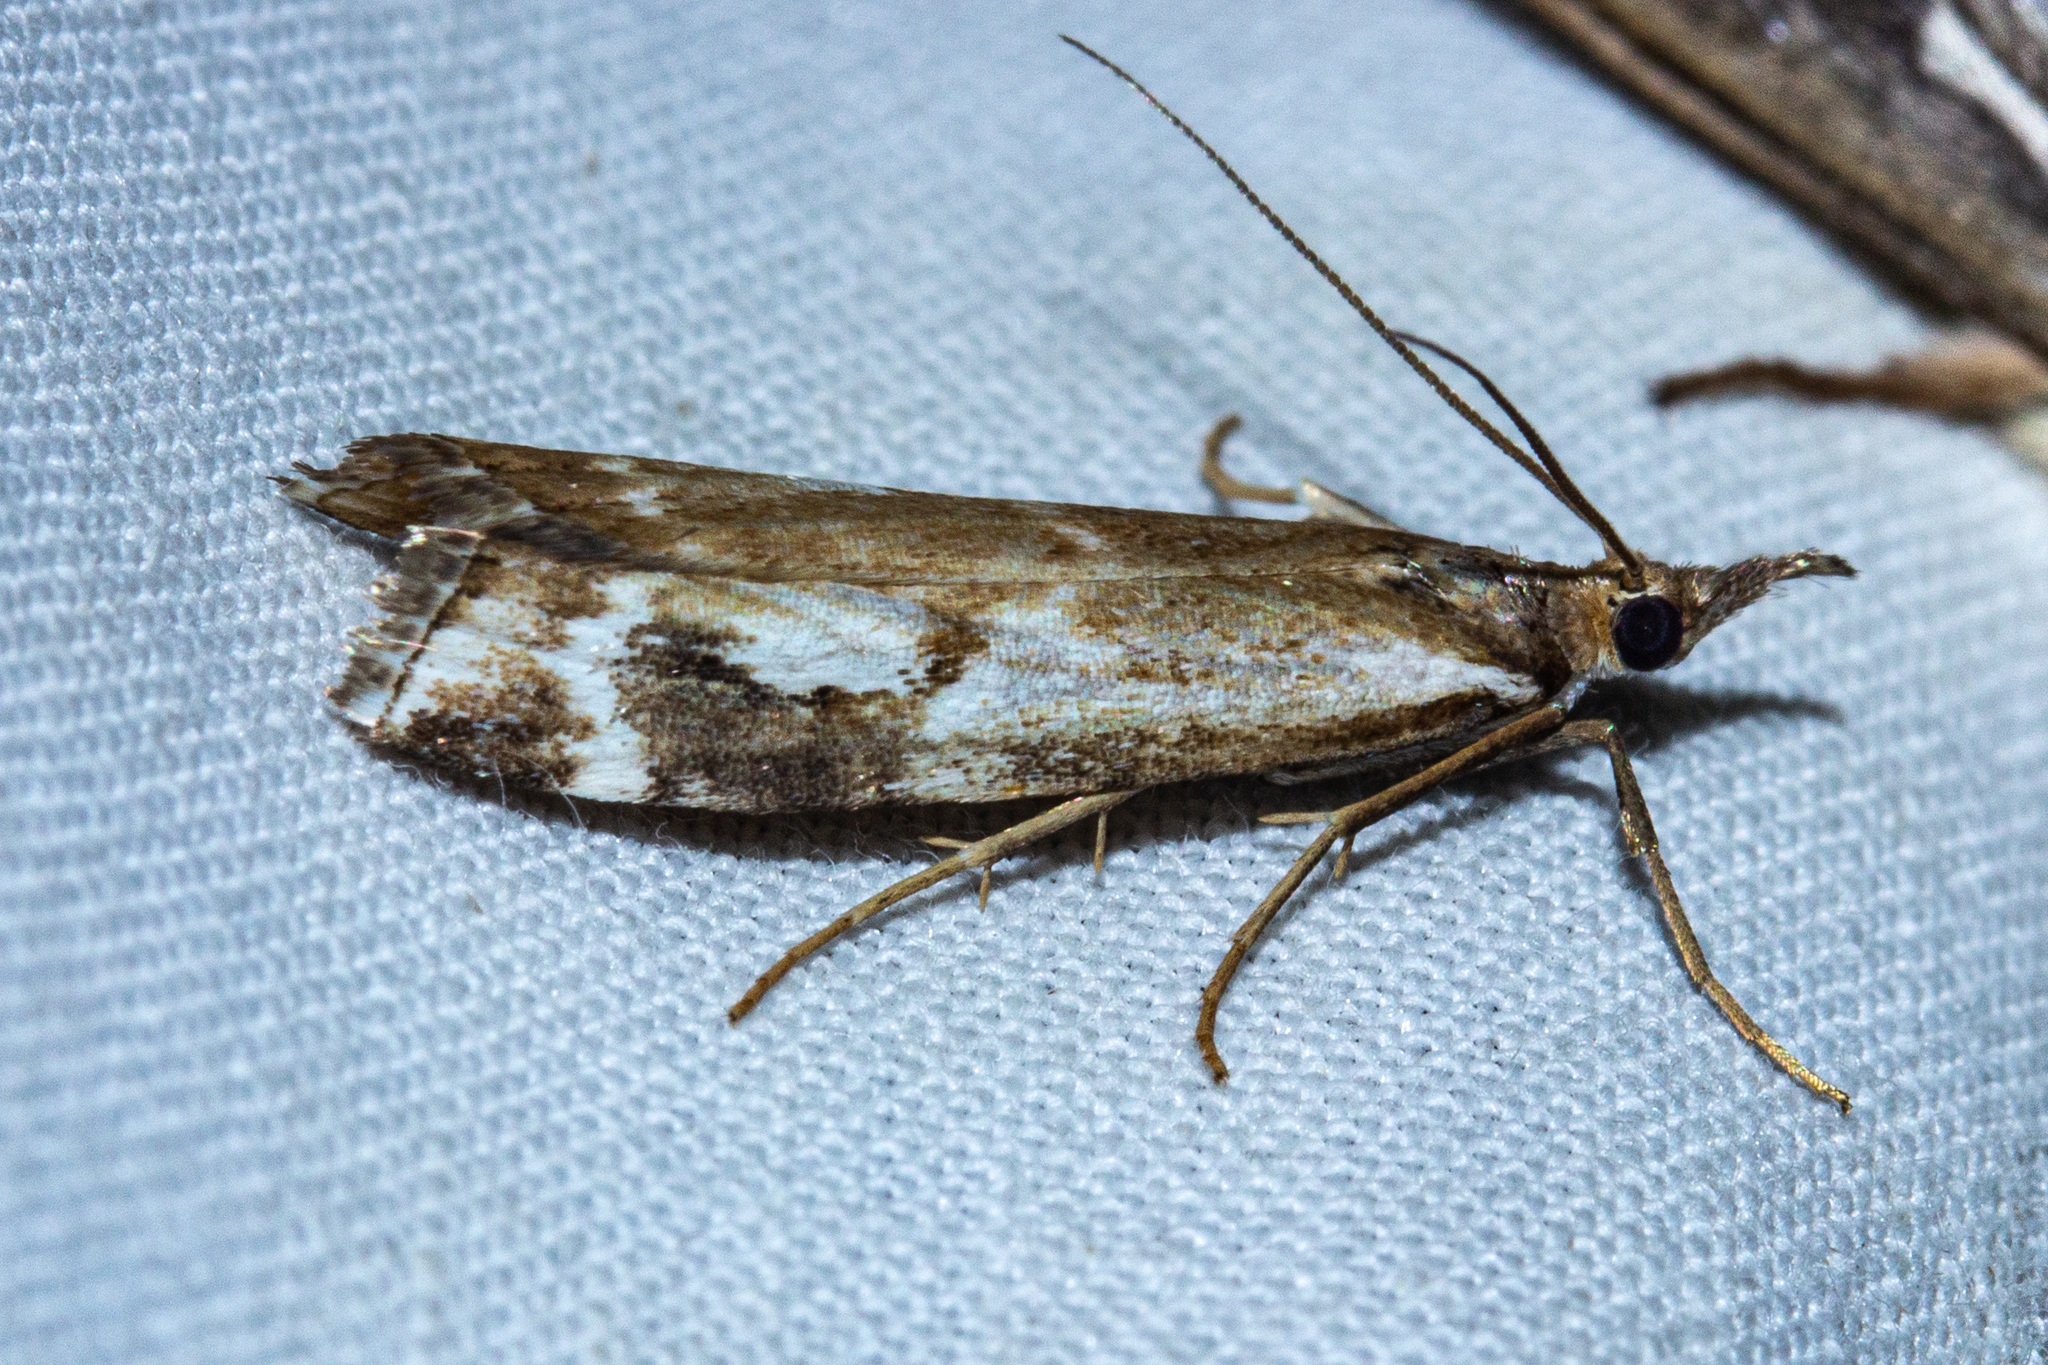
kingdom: Animalia
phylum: Arthropoda
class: Insecta
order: Lepidoptera
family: Crambidae
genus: Orocrambus
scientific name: Orocrambus vulgaris
